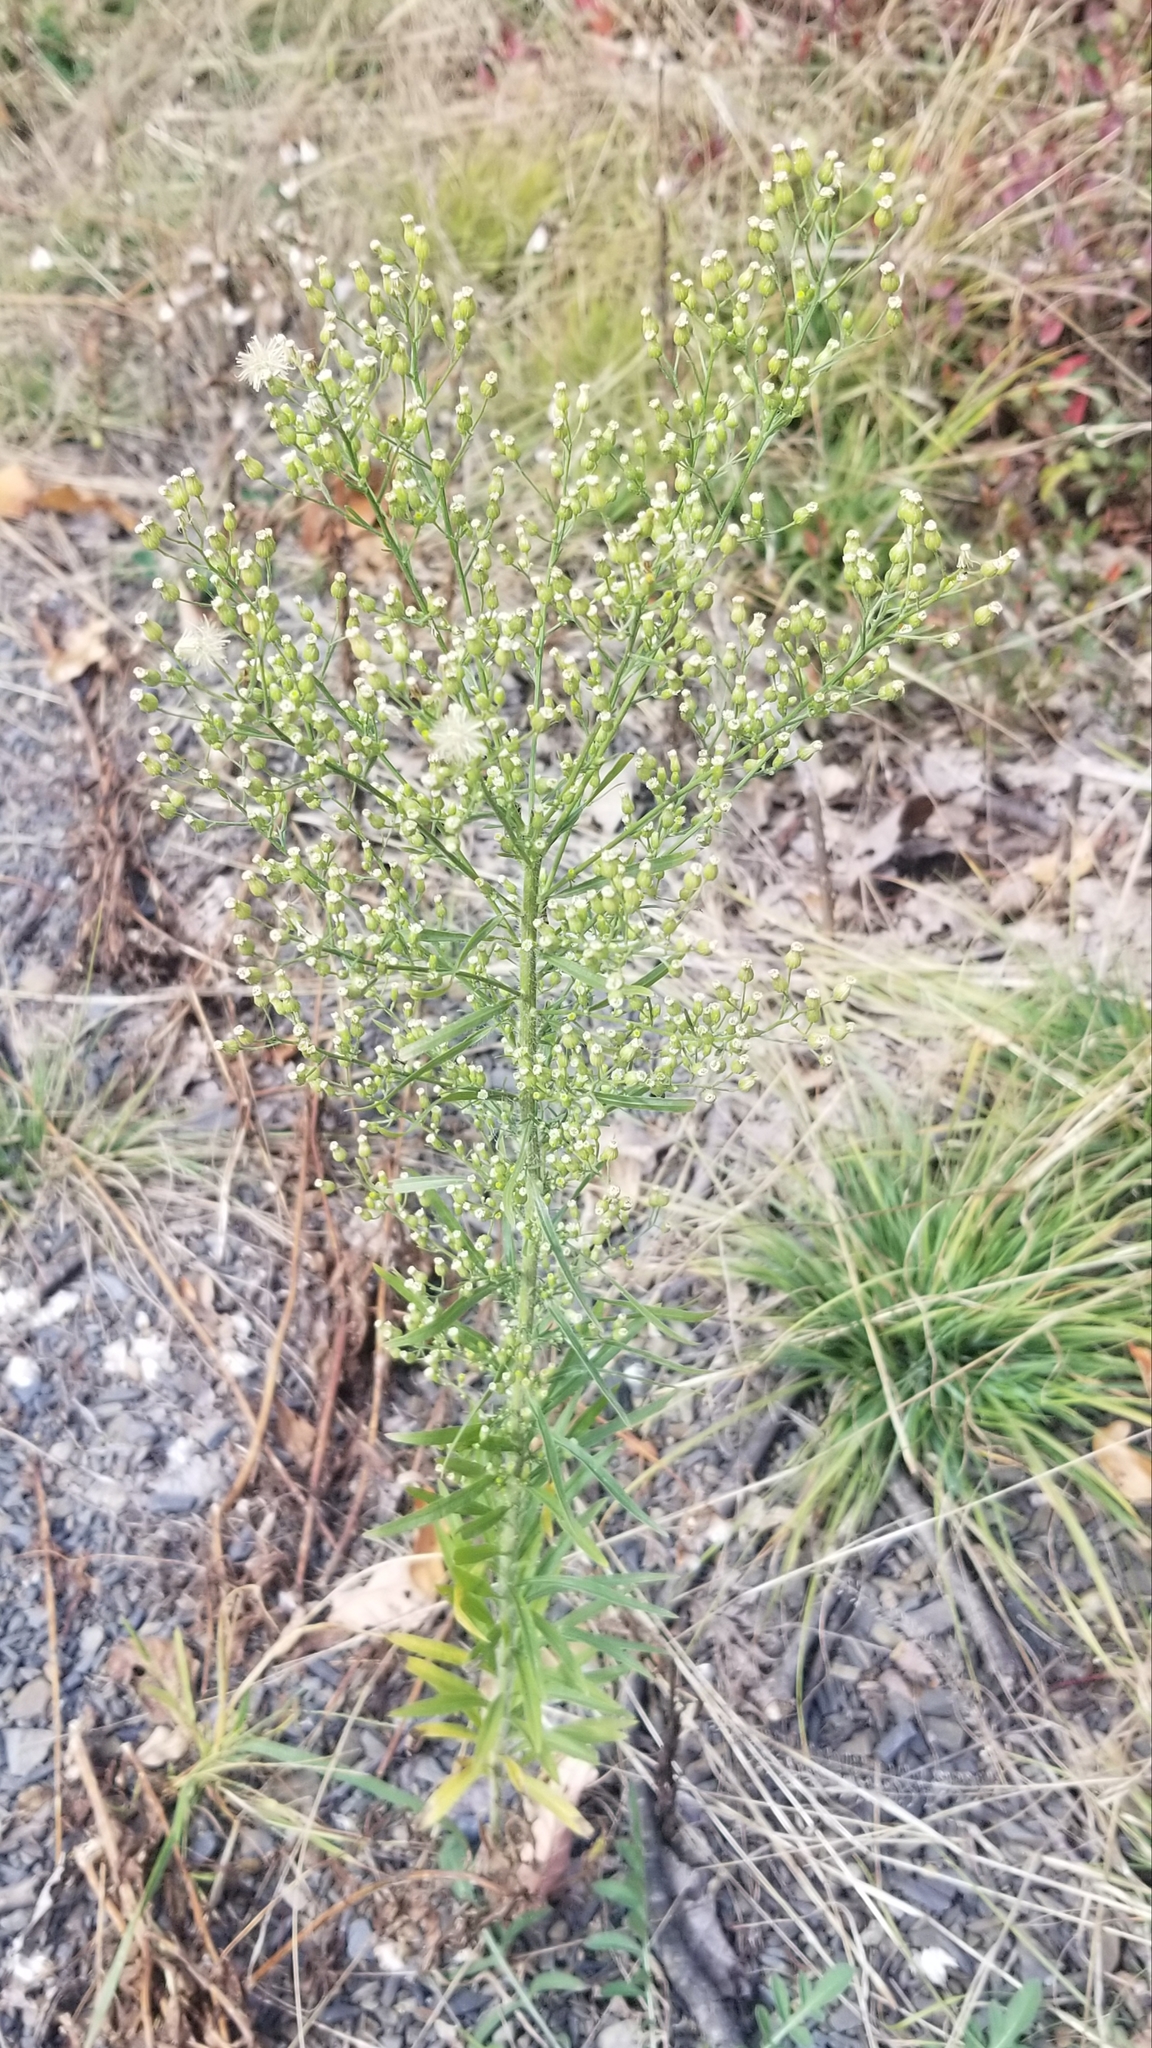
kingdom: Plantae
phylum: Tracheophyta
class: Magnoliopsida
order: Asterales
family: Asteraceae
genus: Erigeron
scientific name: Erigeron canadensis
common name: Canadian fleabane
